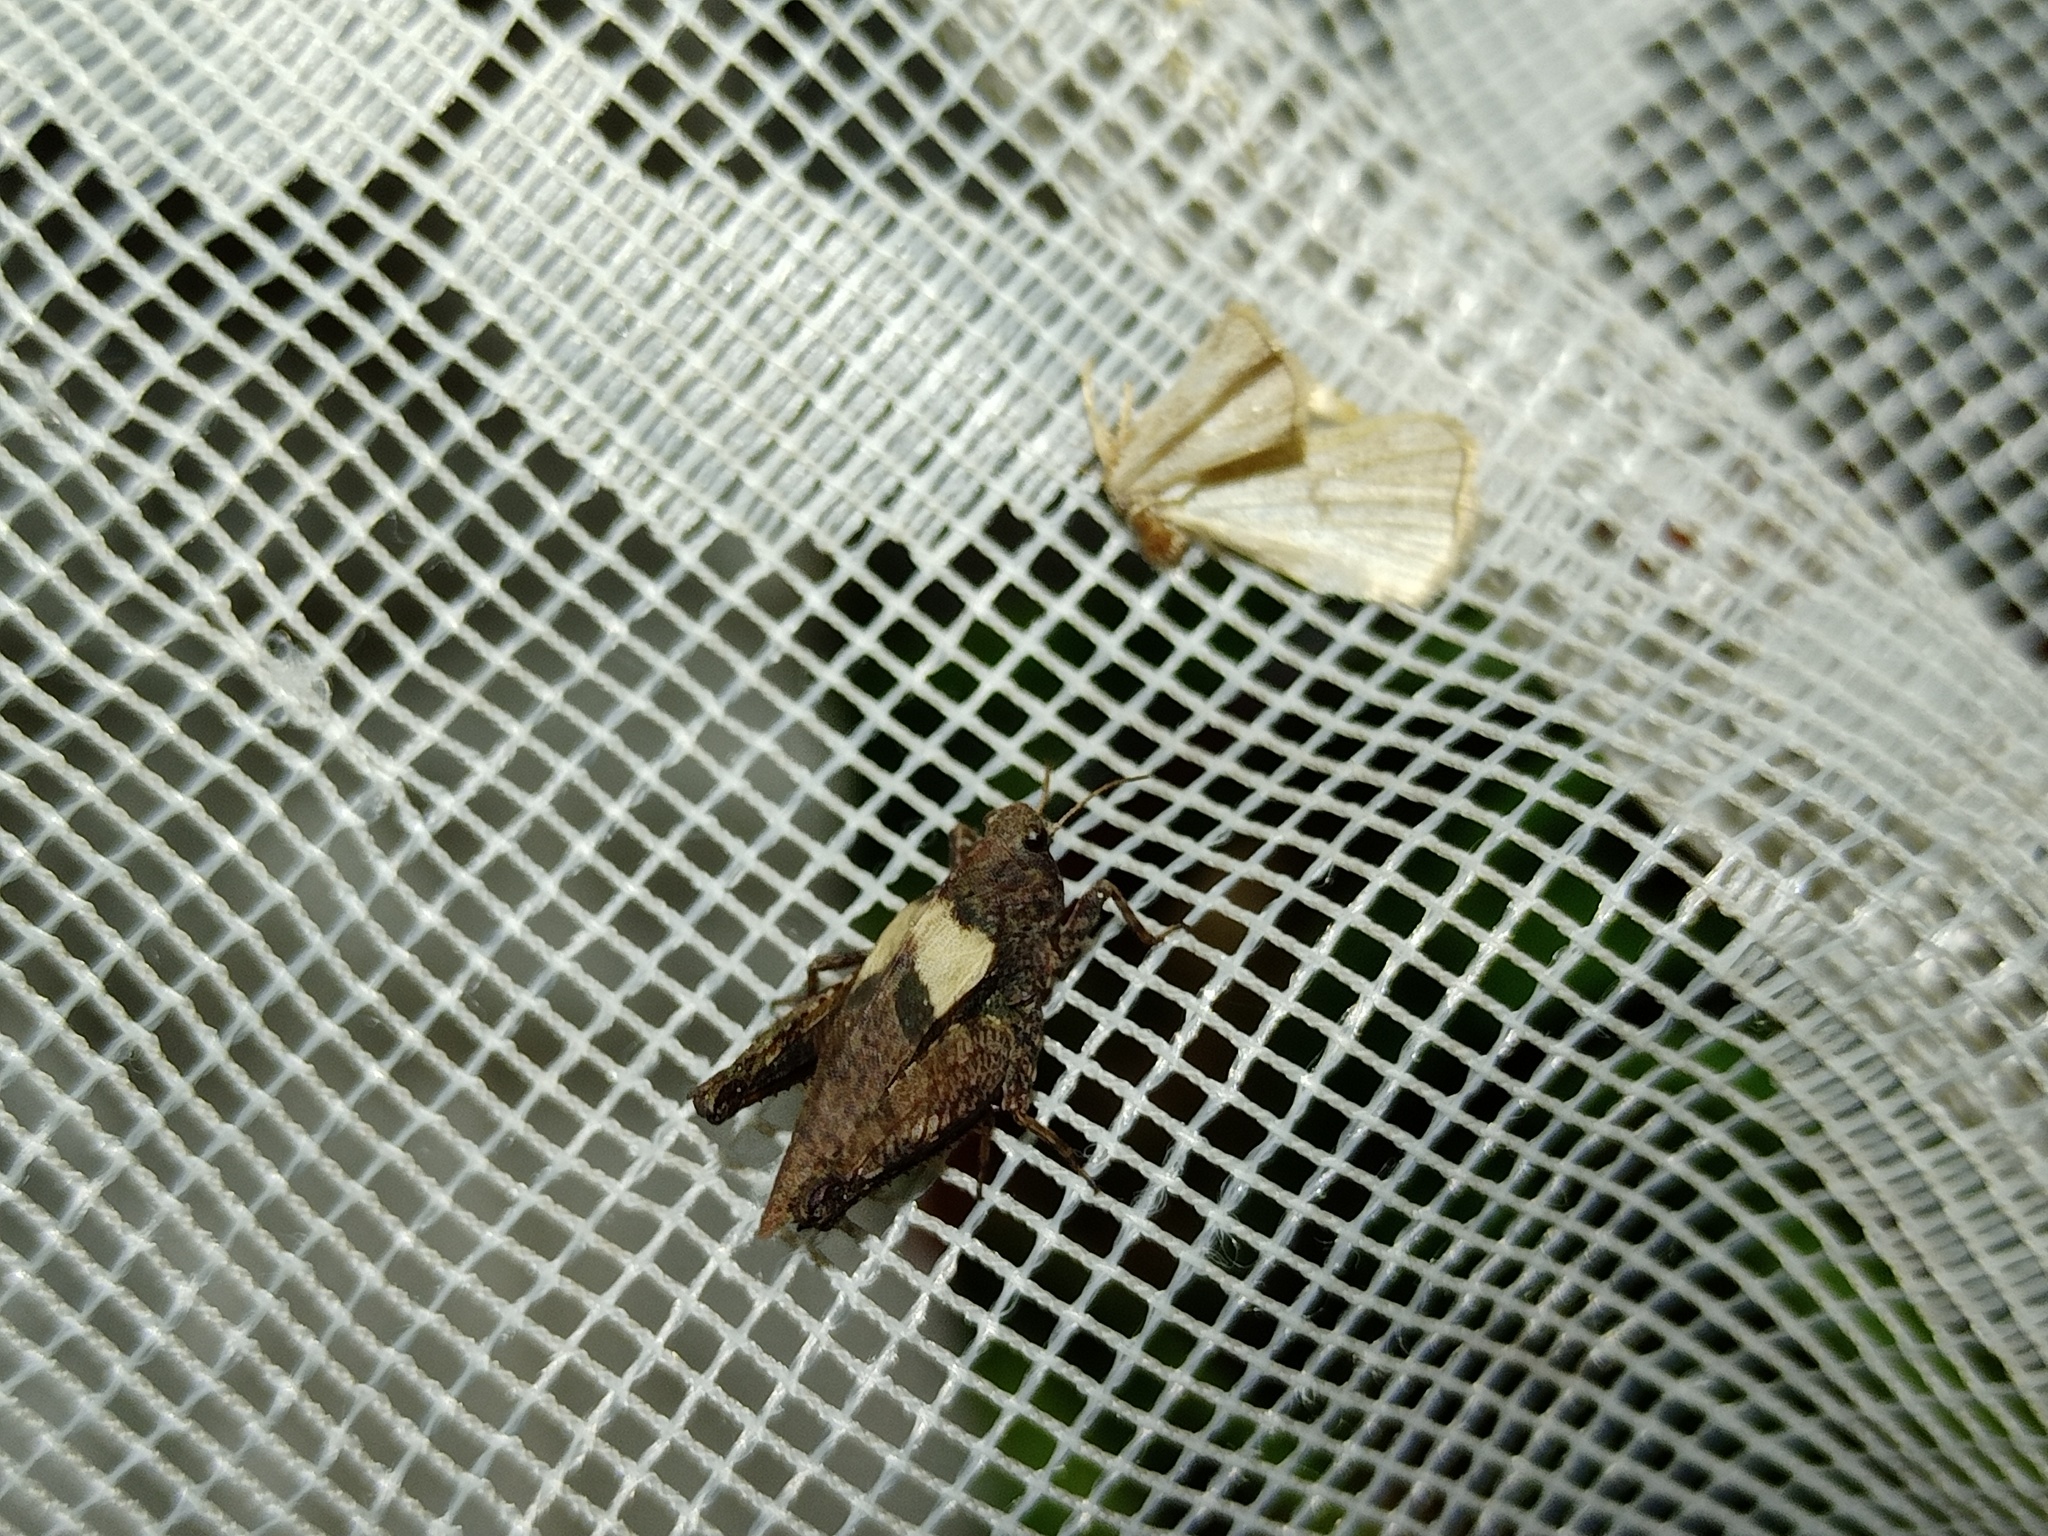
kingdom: Animalia
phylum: Arthropoda
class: Insecta
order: Orthoptera
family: Tetrigidae
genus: Tetrix
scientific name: Tetrix tenuicornis
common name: Long-horned groundhopper
